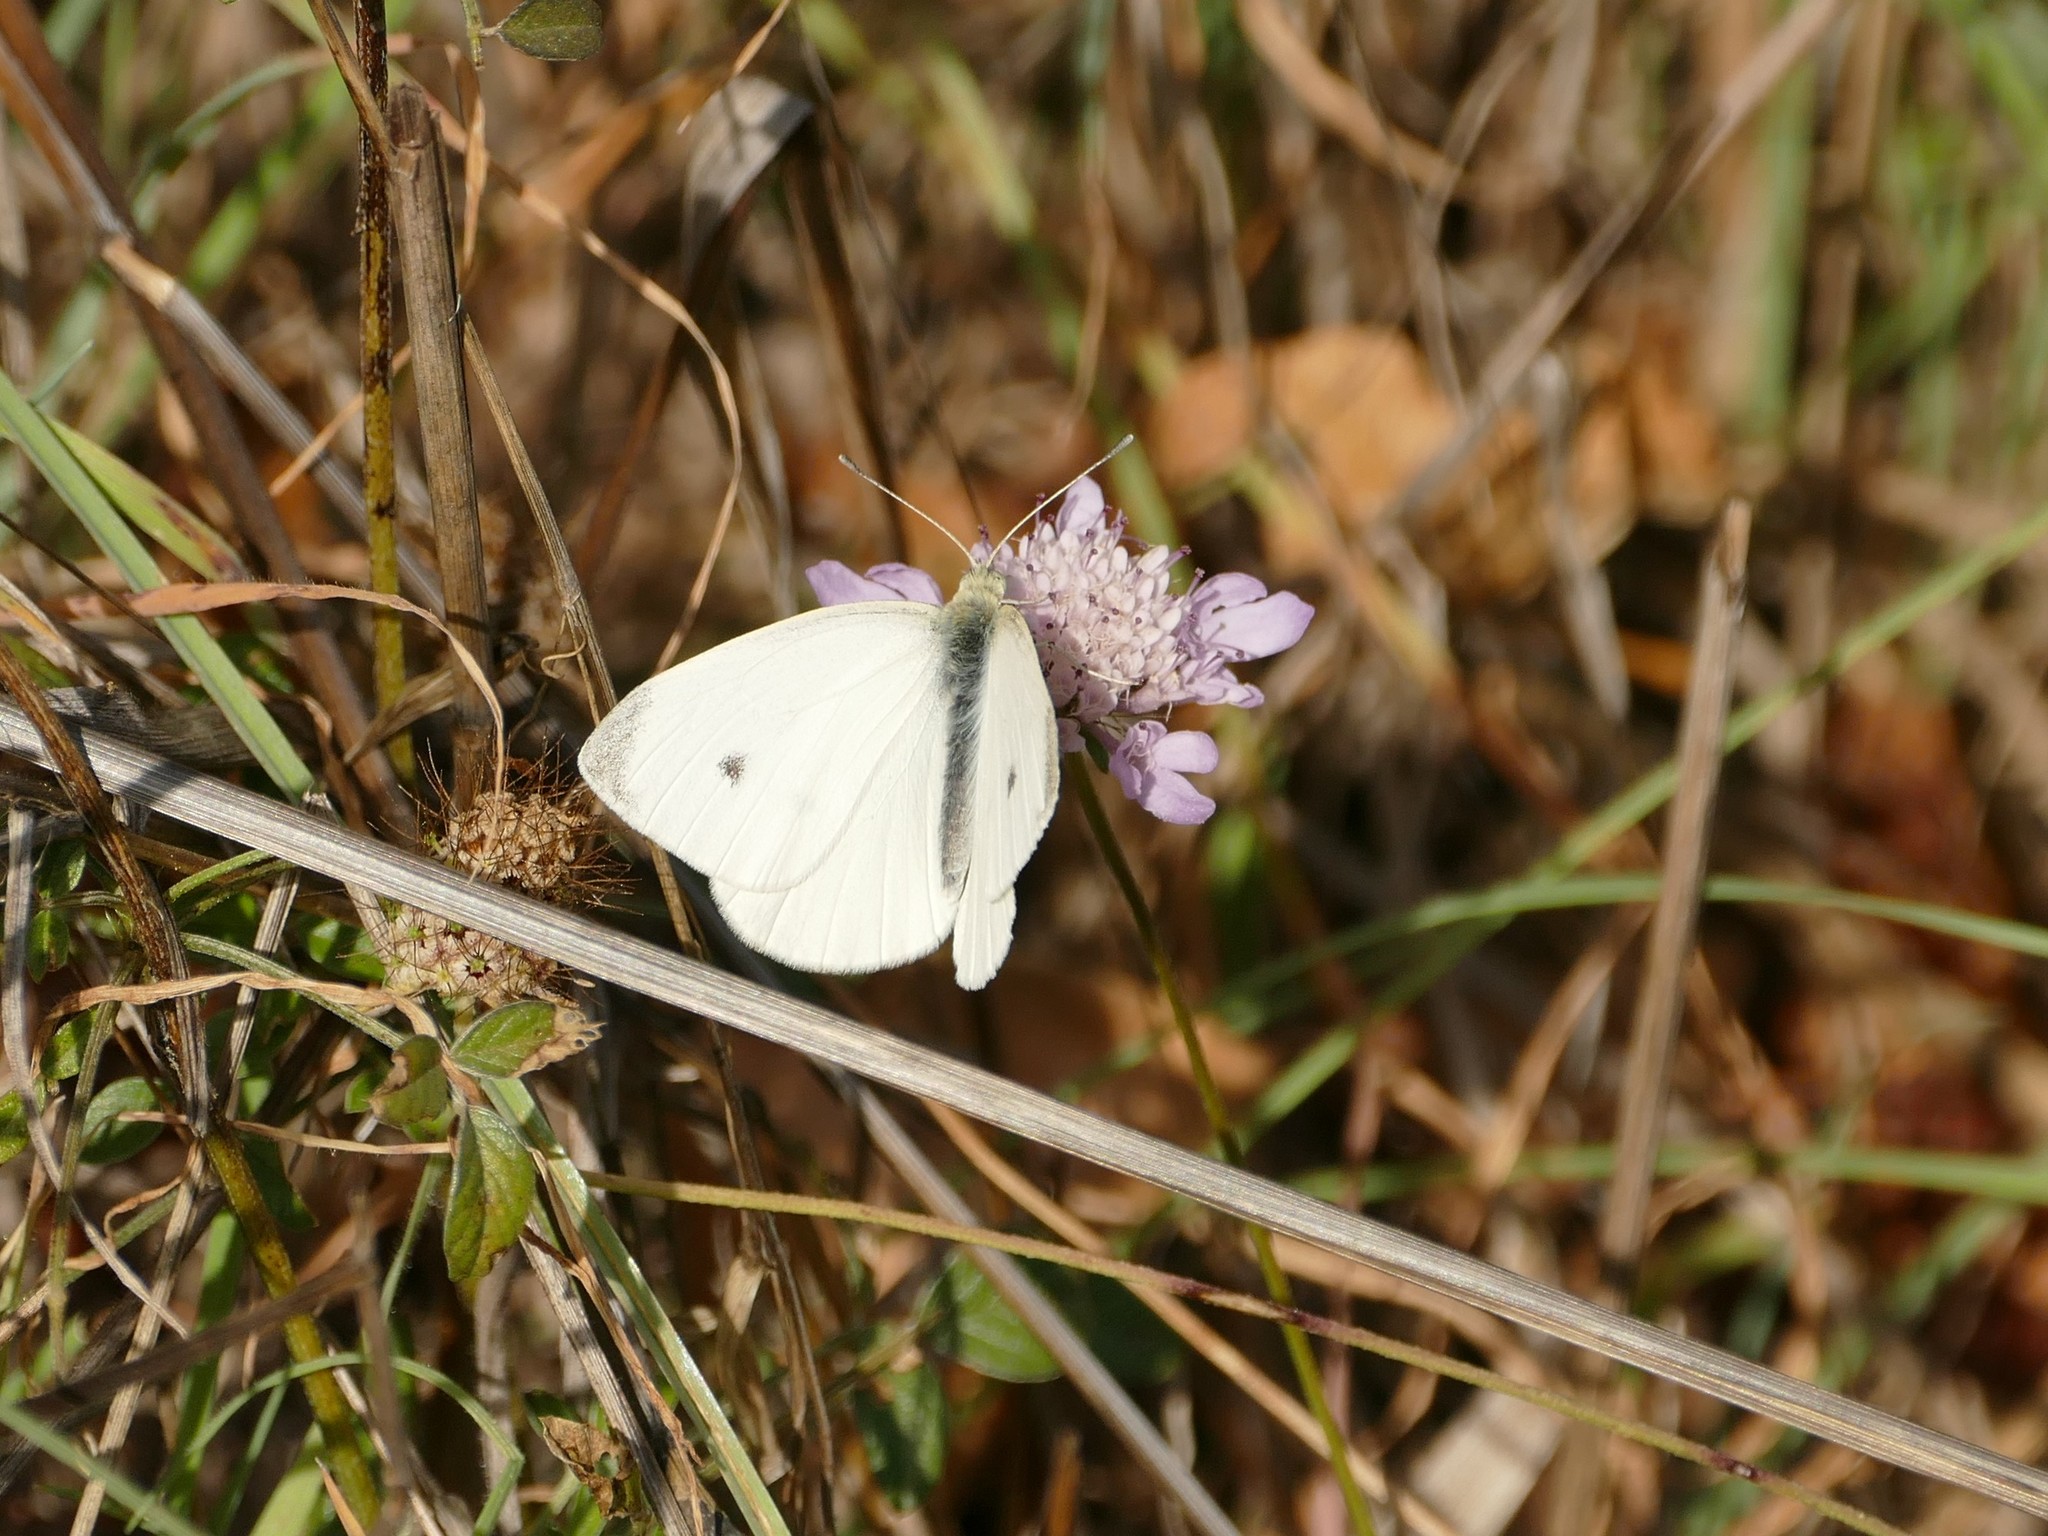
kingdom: Animalia
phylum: Arthropoda
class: Insecta
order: Lepidoptera
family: Pieridae
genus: Pieris
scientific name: Pieris rapae
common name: Small white
